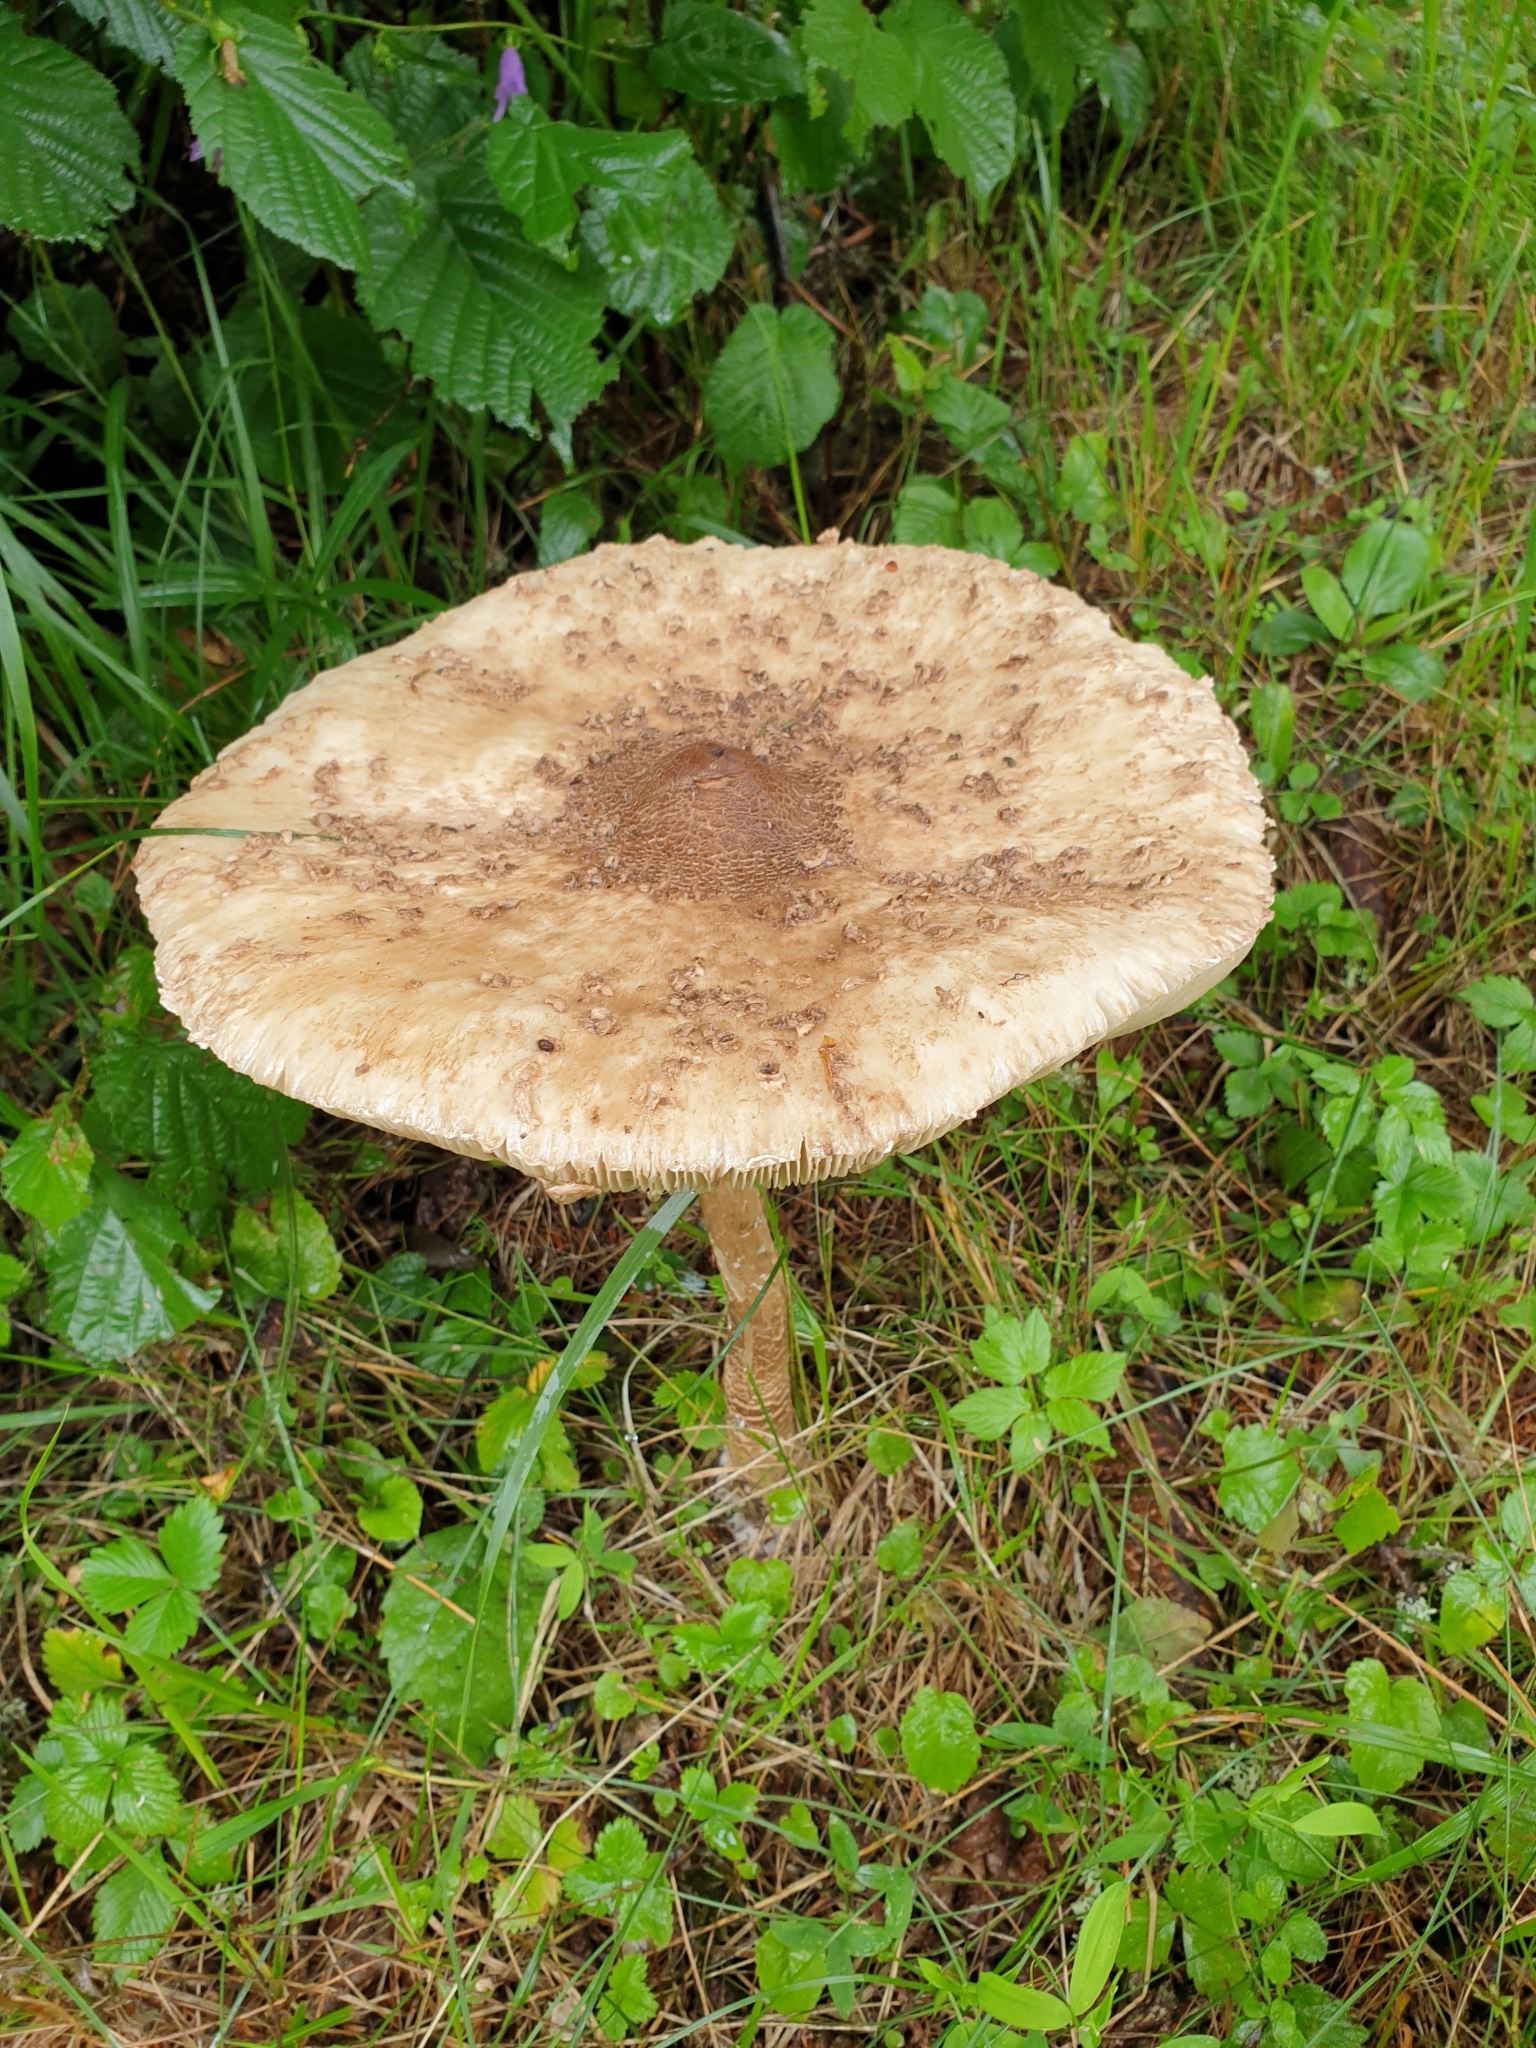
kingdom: Fungi
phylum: Basidiomycota
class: Agaricomycetes
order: Agaricales
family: Agaricaceae
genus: Macrolepiota
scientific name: Macrolepiota procera
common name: Parasol
